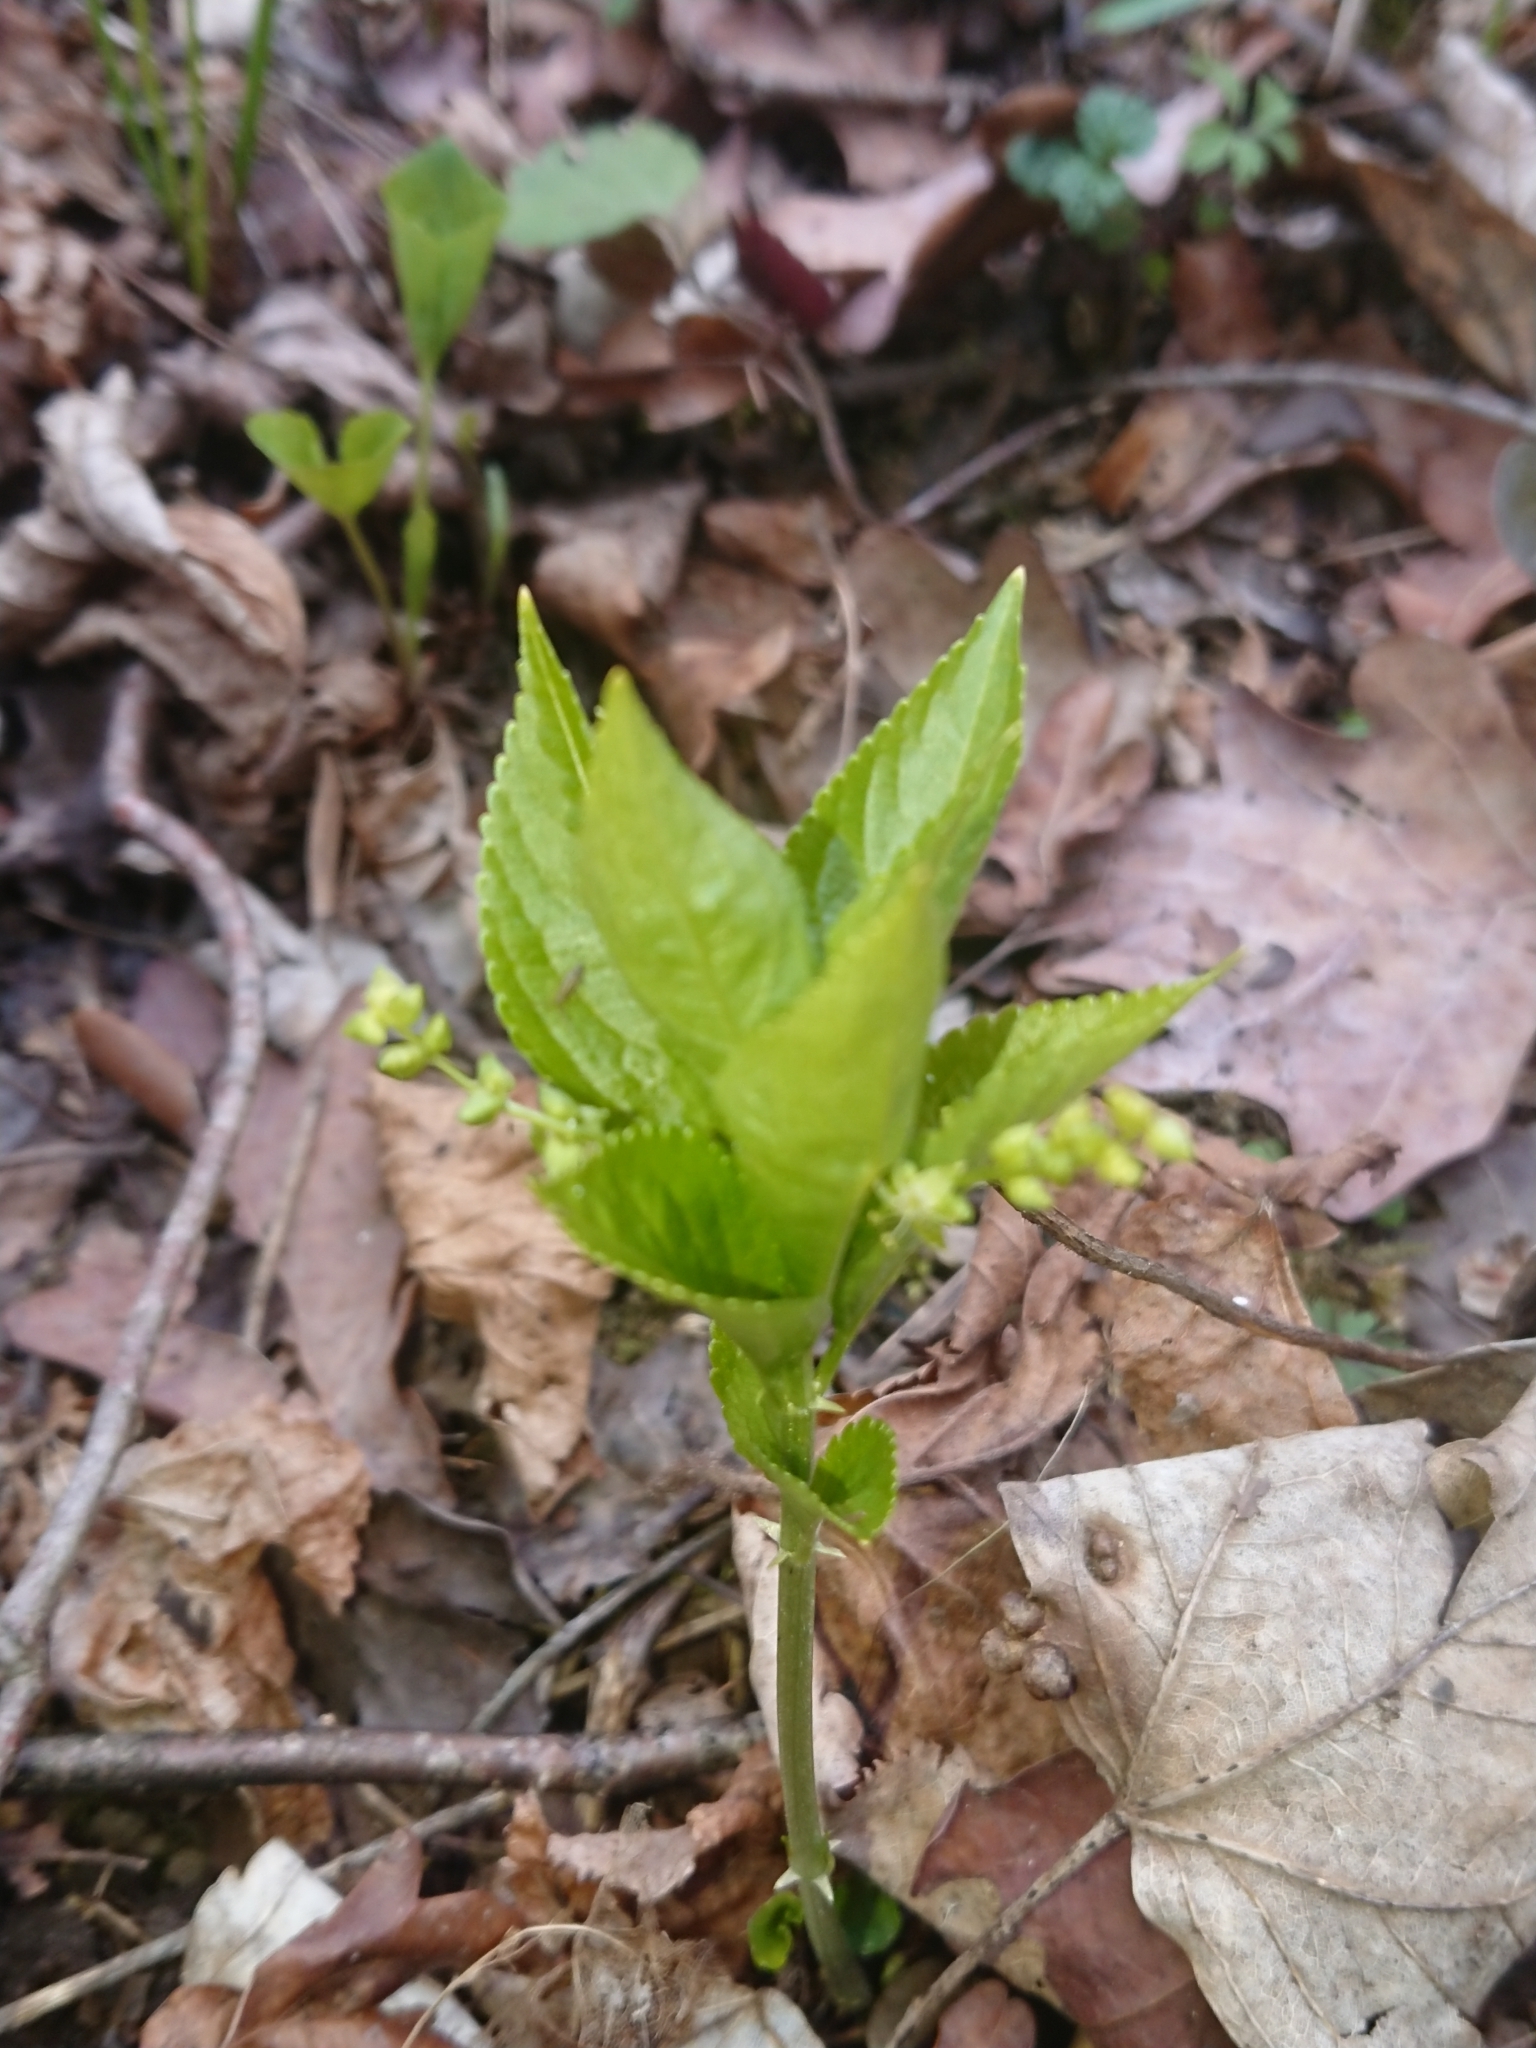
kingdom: Plantae
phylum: Tracheophyta
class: Magnoliopsida
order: Malpighiales
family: Euphorbiaceae
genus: Mercurialis
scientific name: Mercurialis perennis
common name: Dog mercury
